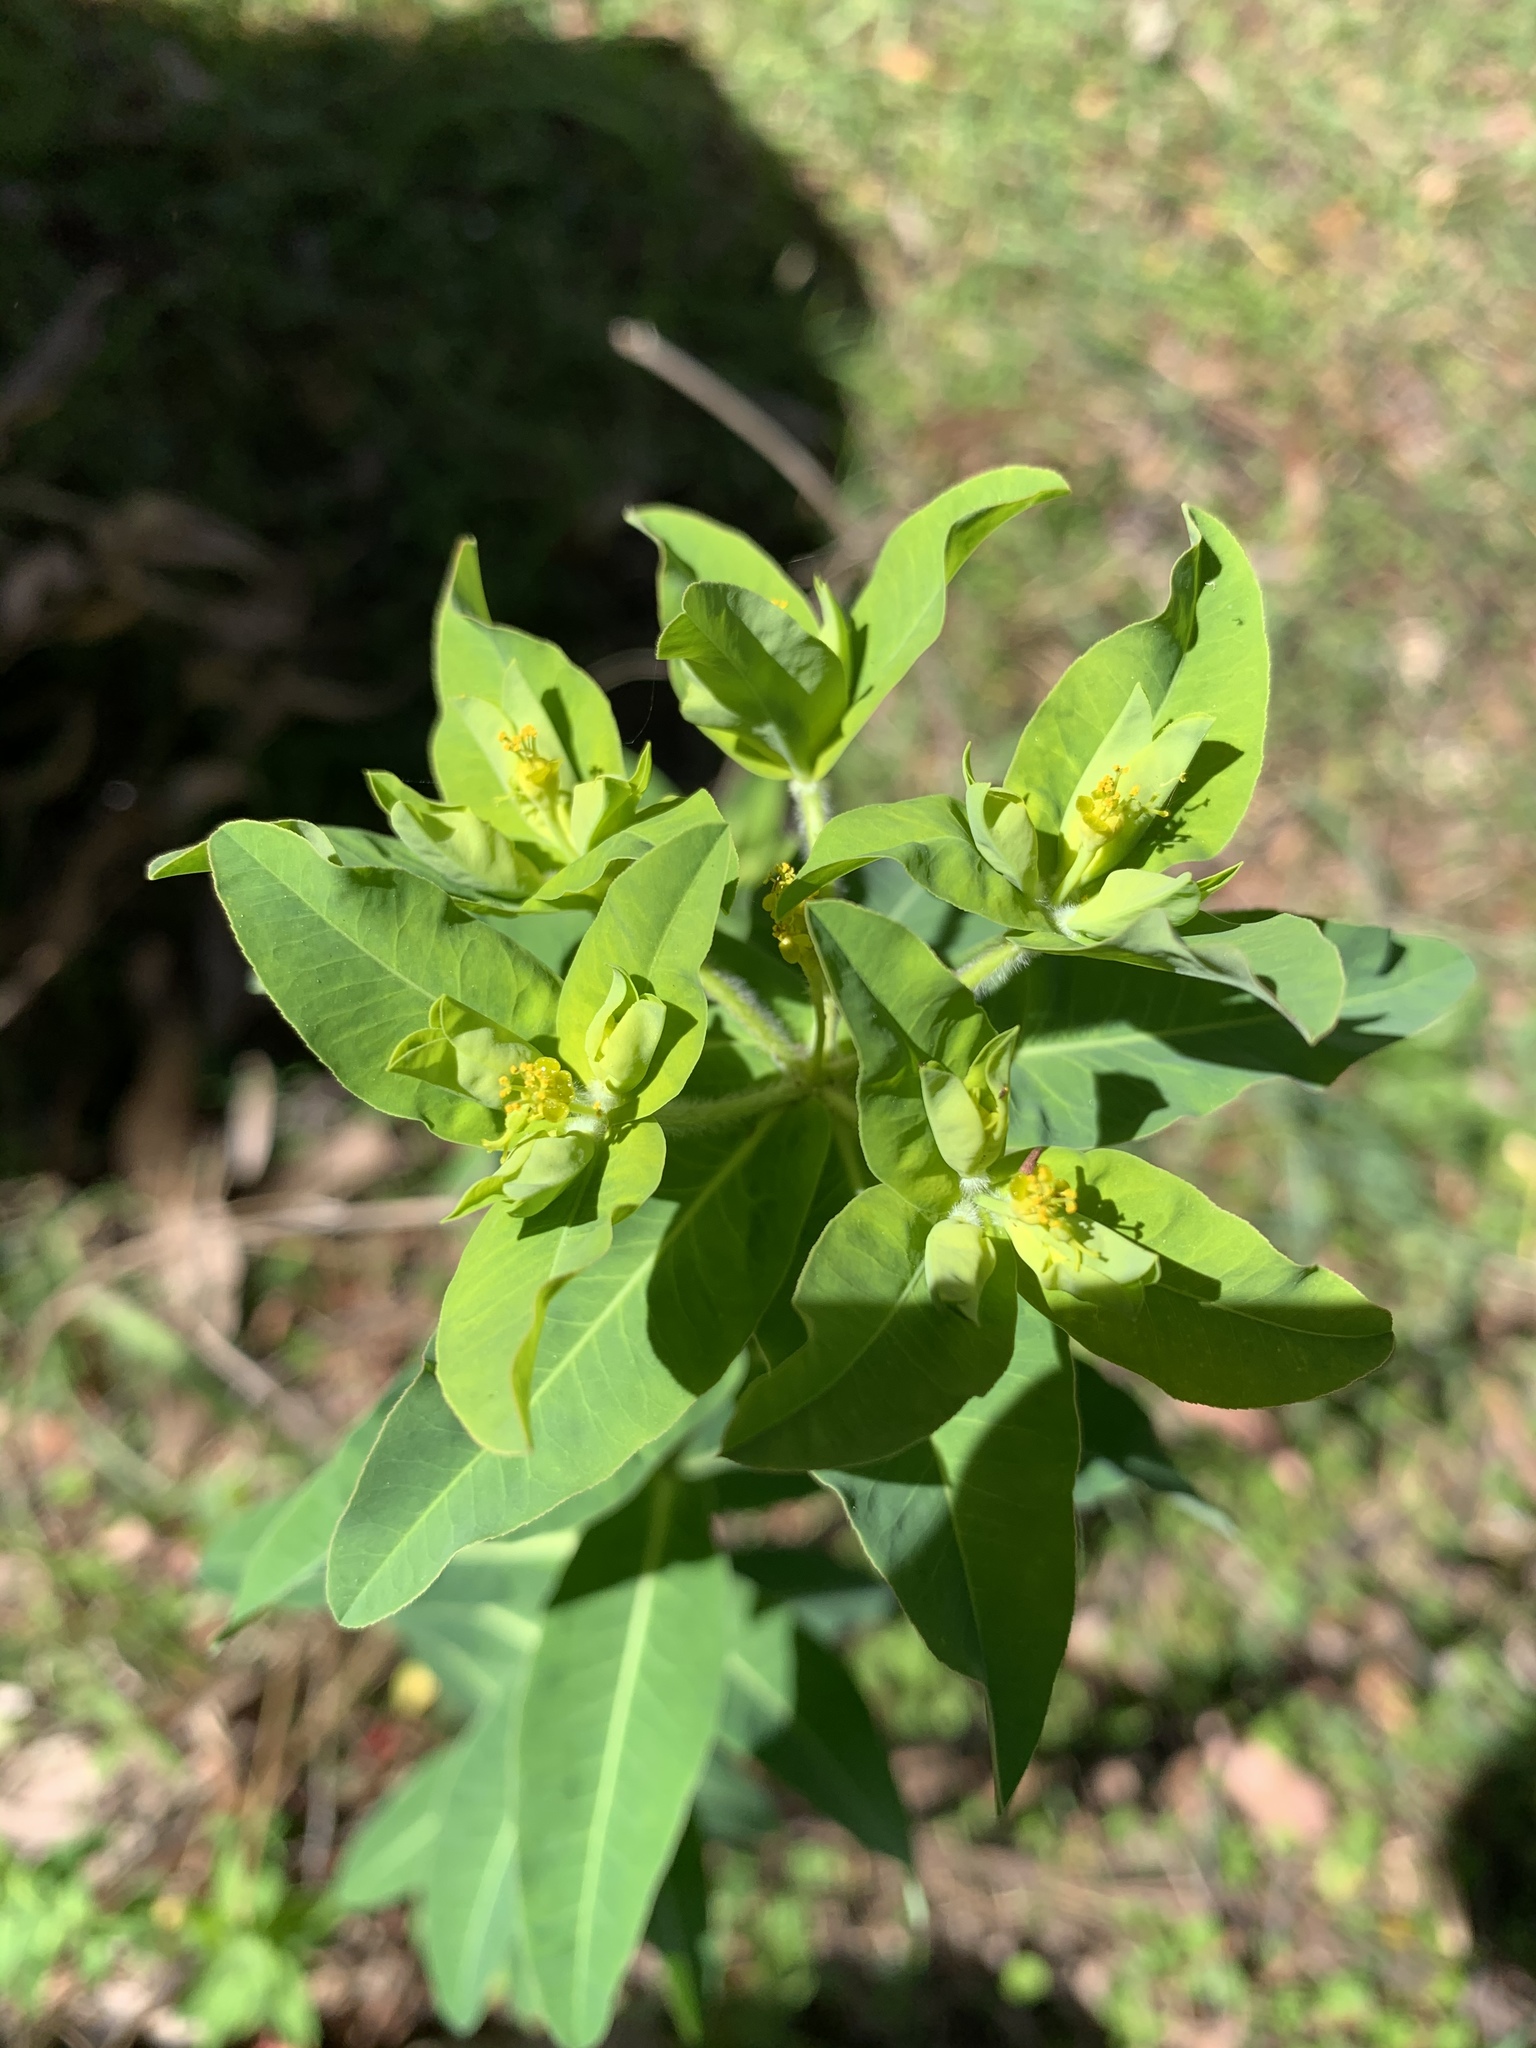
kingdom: Plantae
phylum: Tracheophyta
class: Magnoliopsida
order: Malpighiales
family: Euphorbiaceae
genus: Euphorbia
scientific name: Euphorbia oblongata
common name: Balkan spurge
